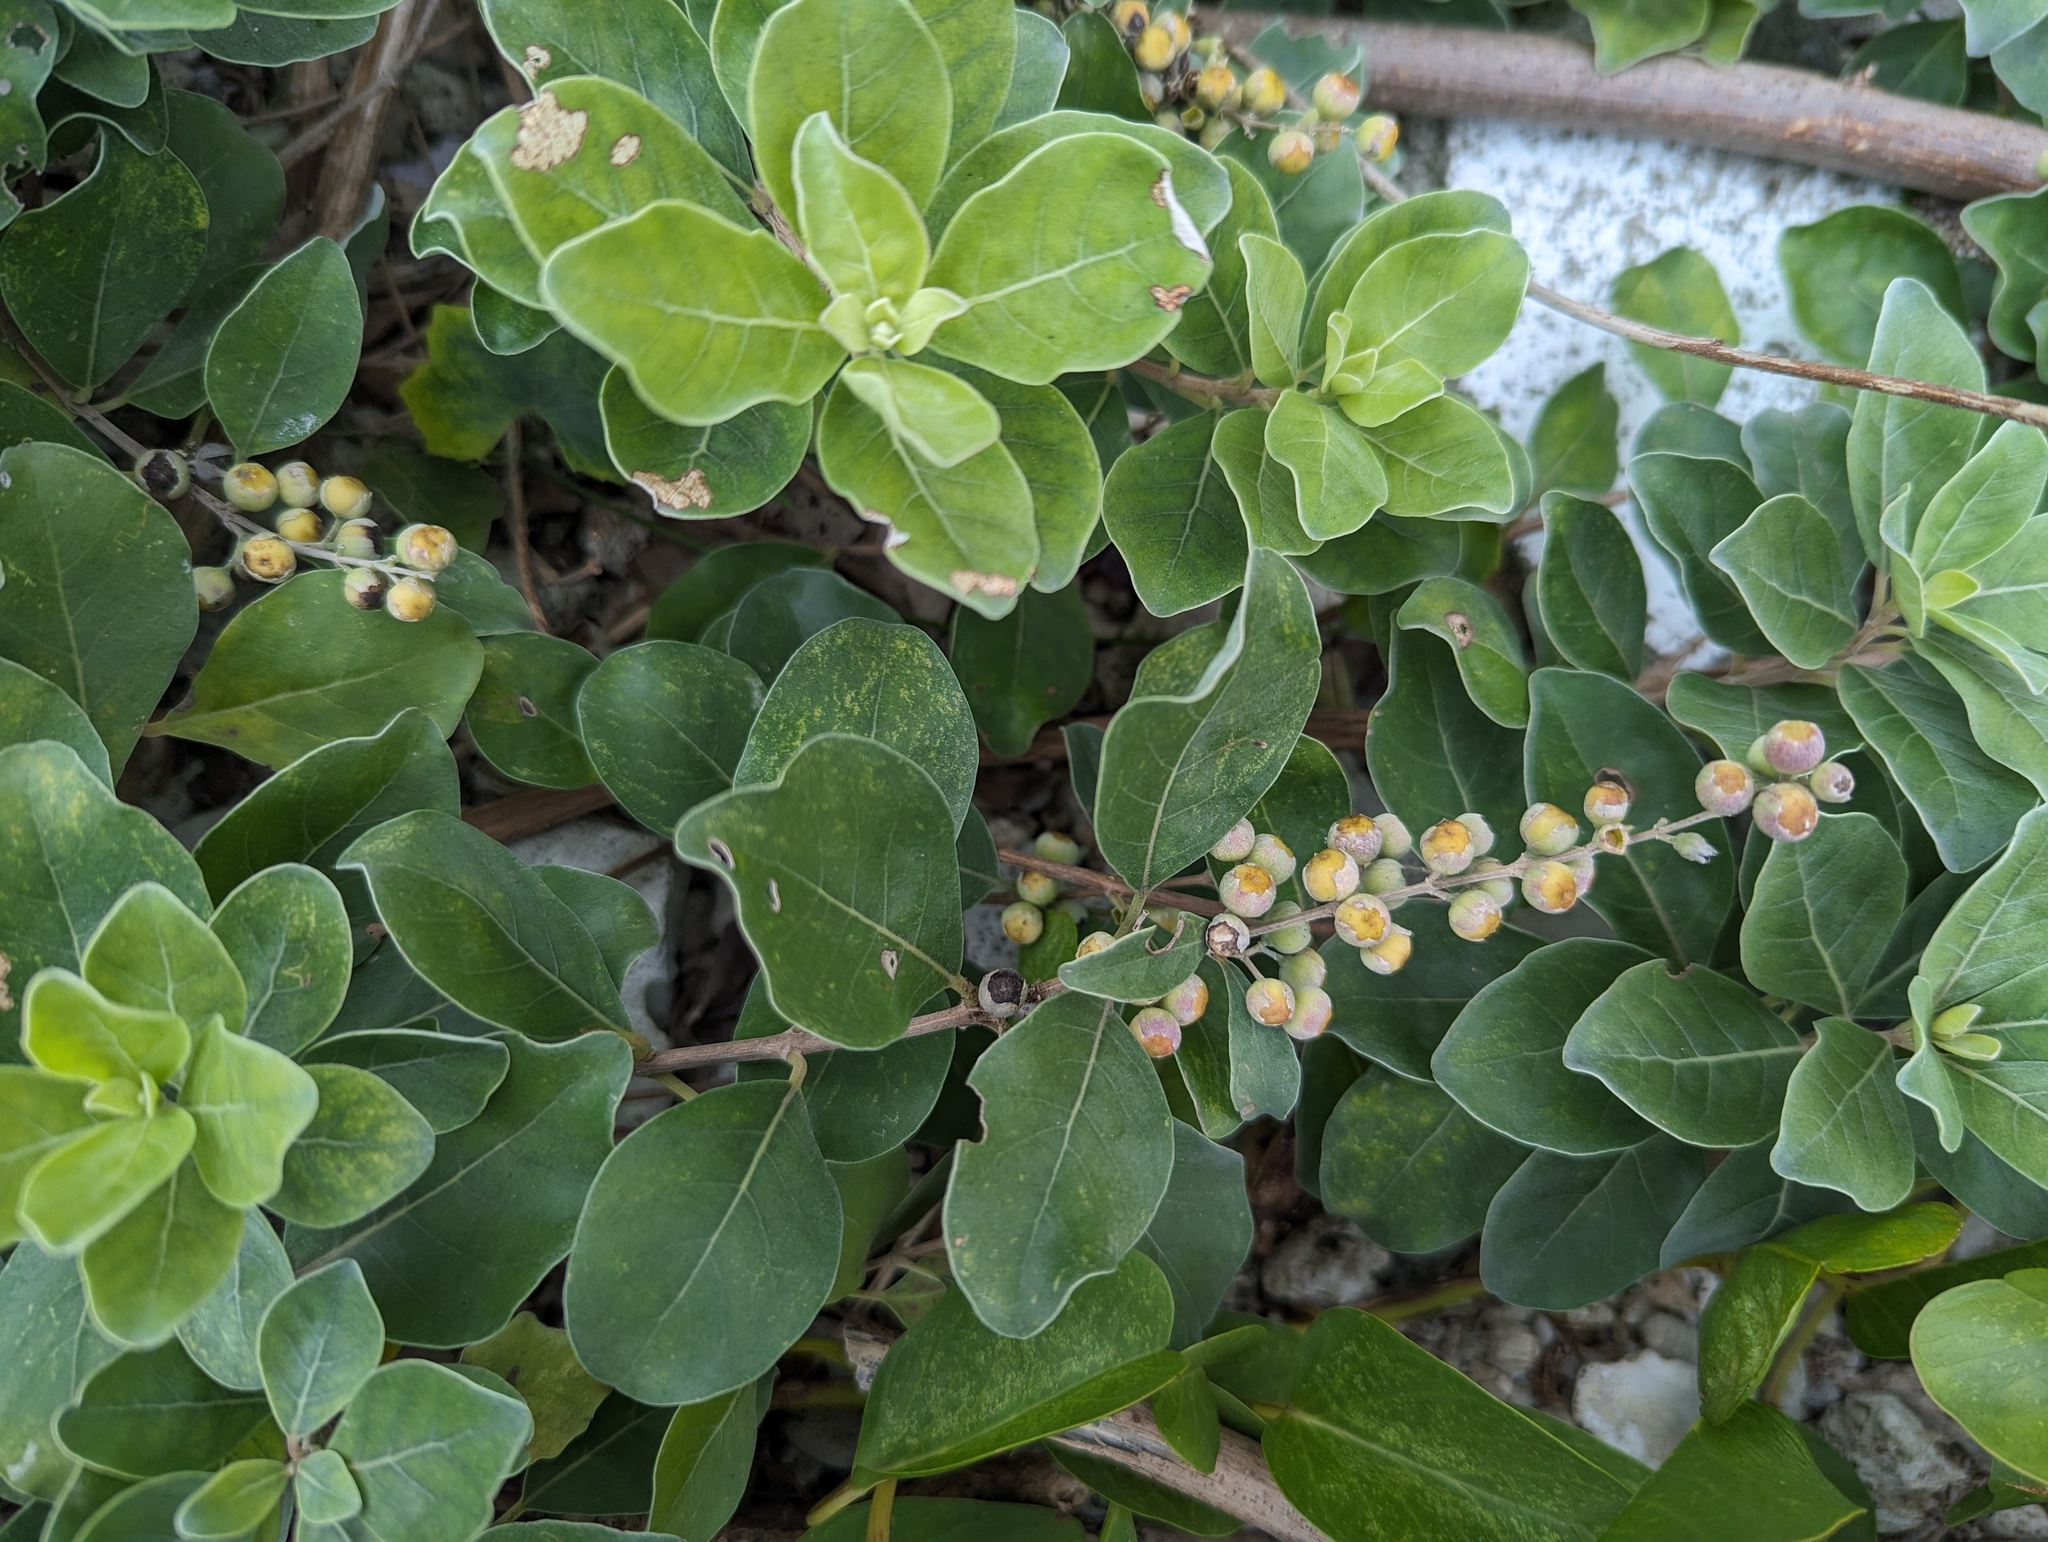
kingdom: Plantae
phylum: Tracheophyta
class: Magnoliopsida
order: Lamiales
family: Lamiaceae
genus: Vitex
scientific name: Vitex rotundifolia
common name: Beach vitex
